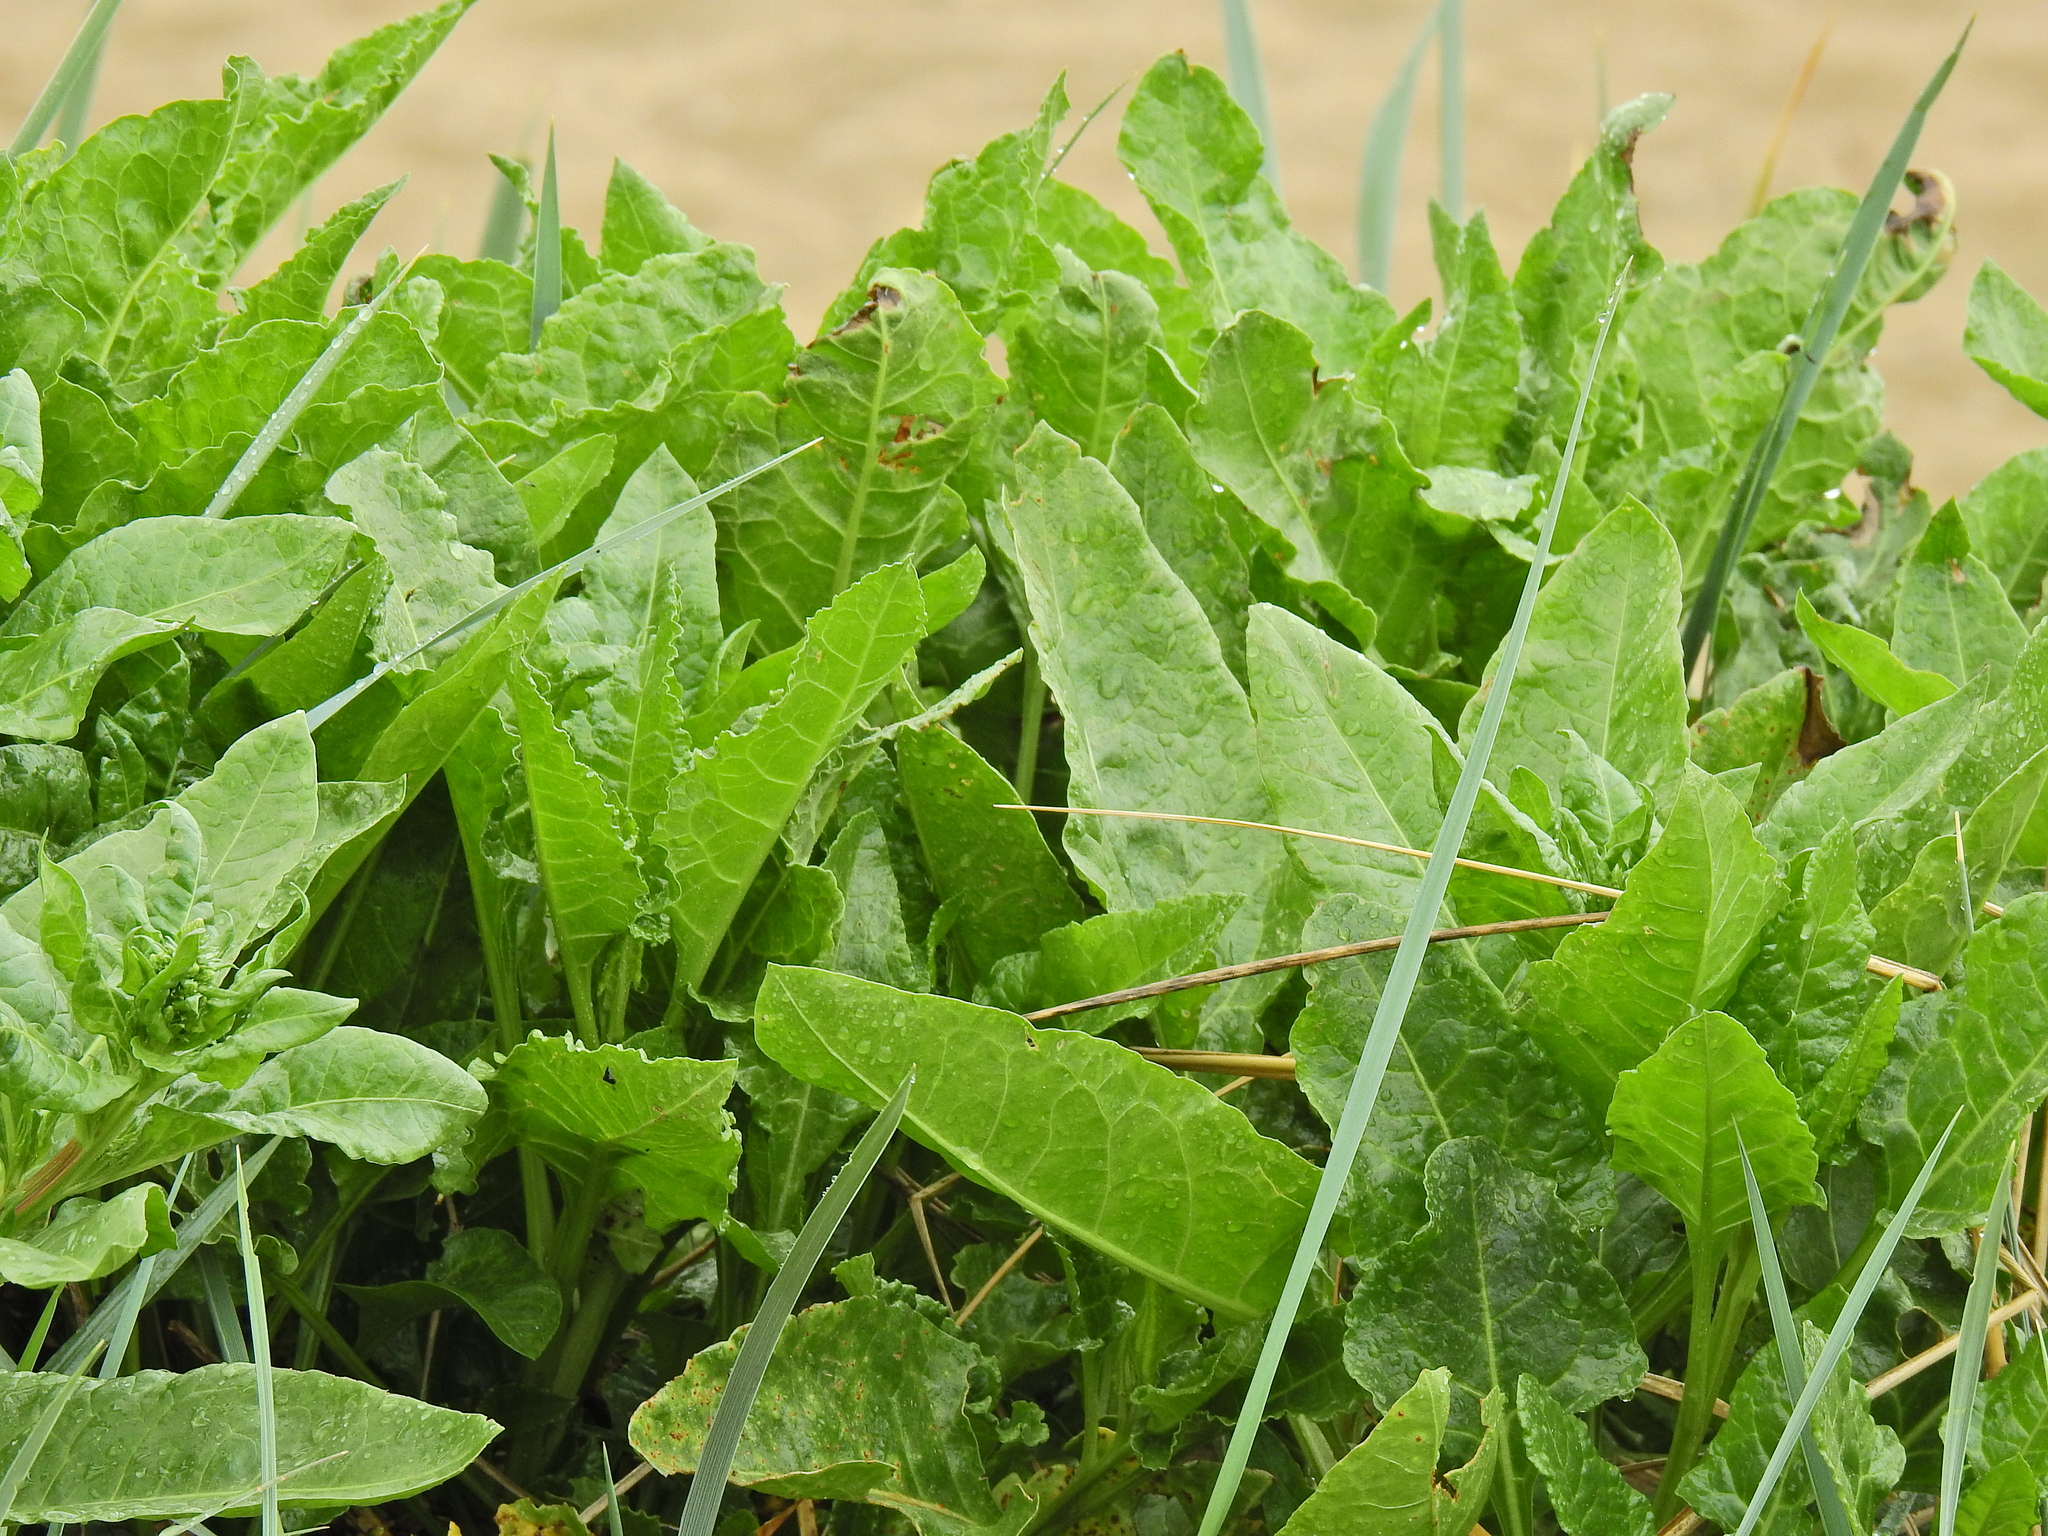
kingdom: Plantae
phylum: Tracheophyta
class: Magnoliopsida
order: Caryophyllales
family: Amaranthaceae
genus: Beta
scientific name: Beta vulgaris
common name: Beet
